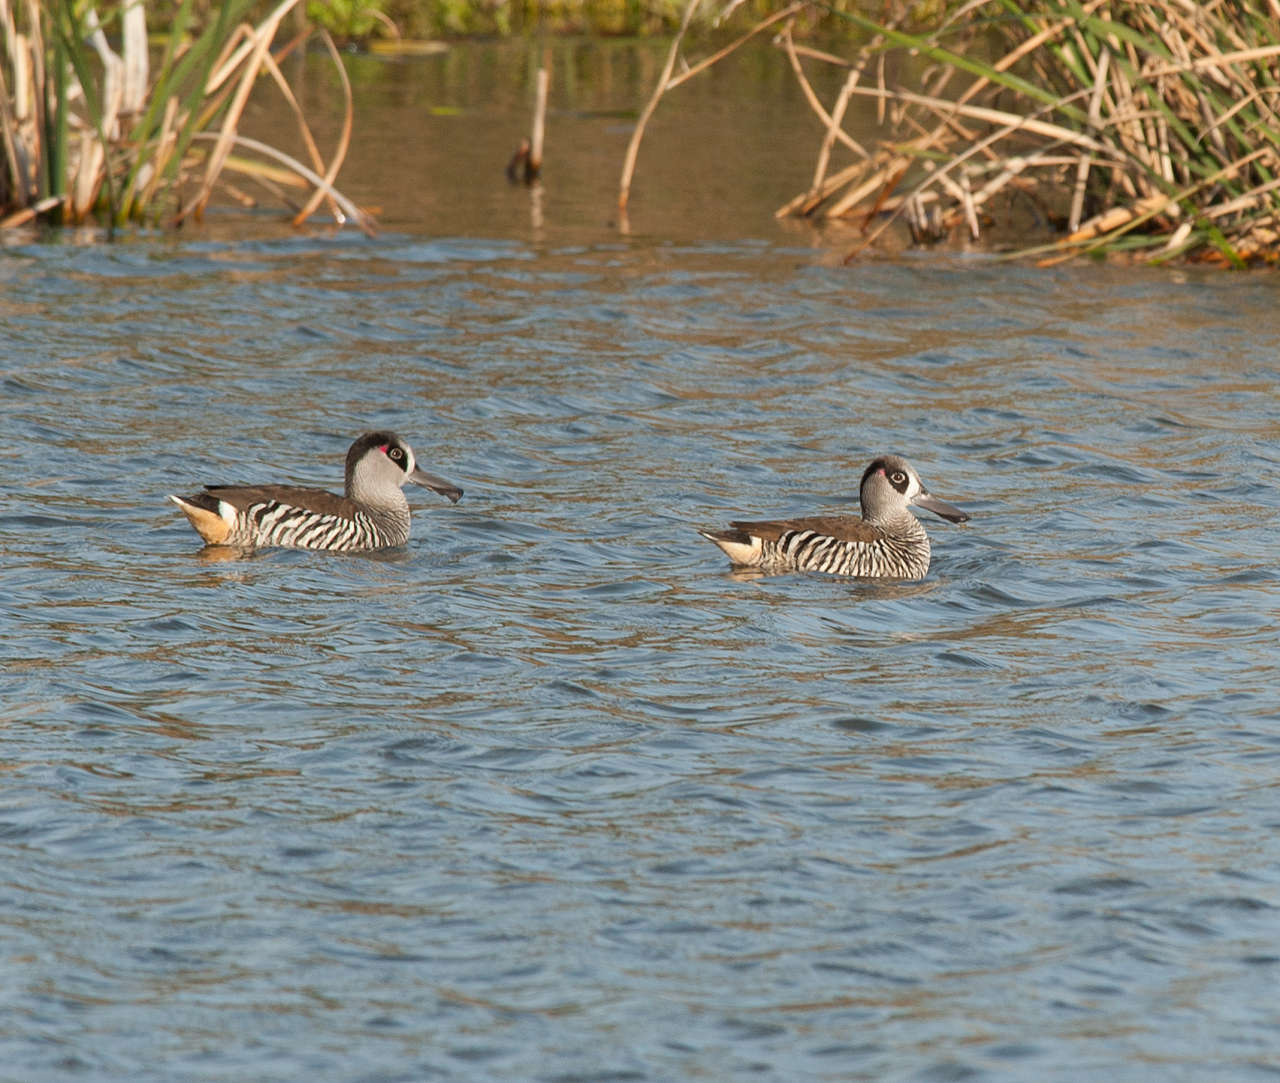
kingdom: Animalia
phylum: Chordata
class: Aves
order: Anseriformes
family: Anatidae
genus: Malacorhynchus
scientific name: Malacorhynchus membranaceus
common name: Pink-eared duck
